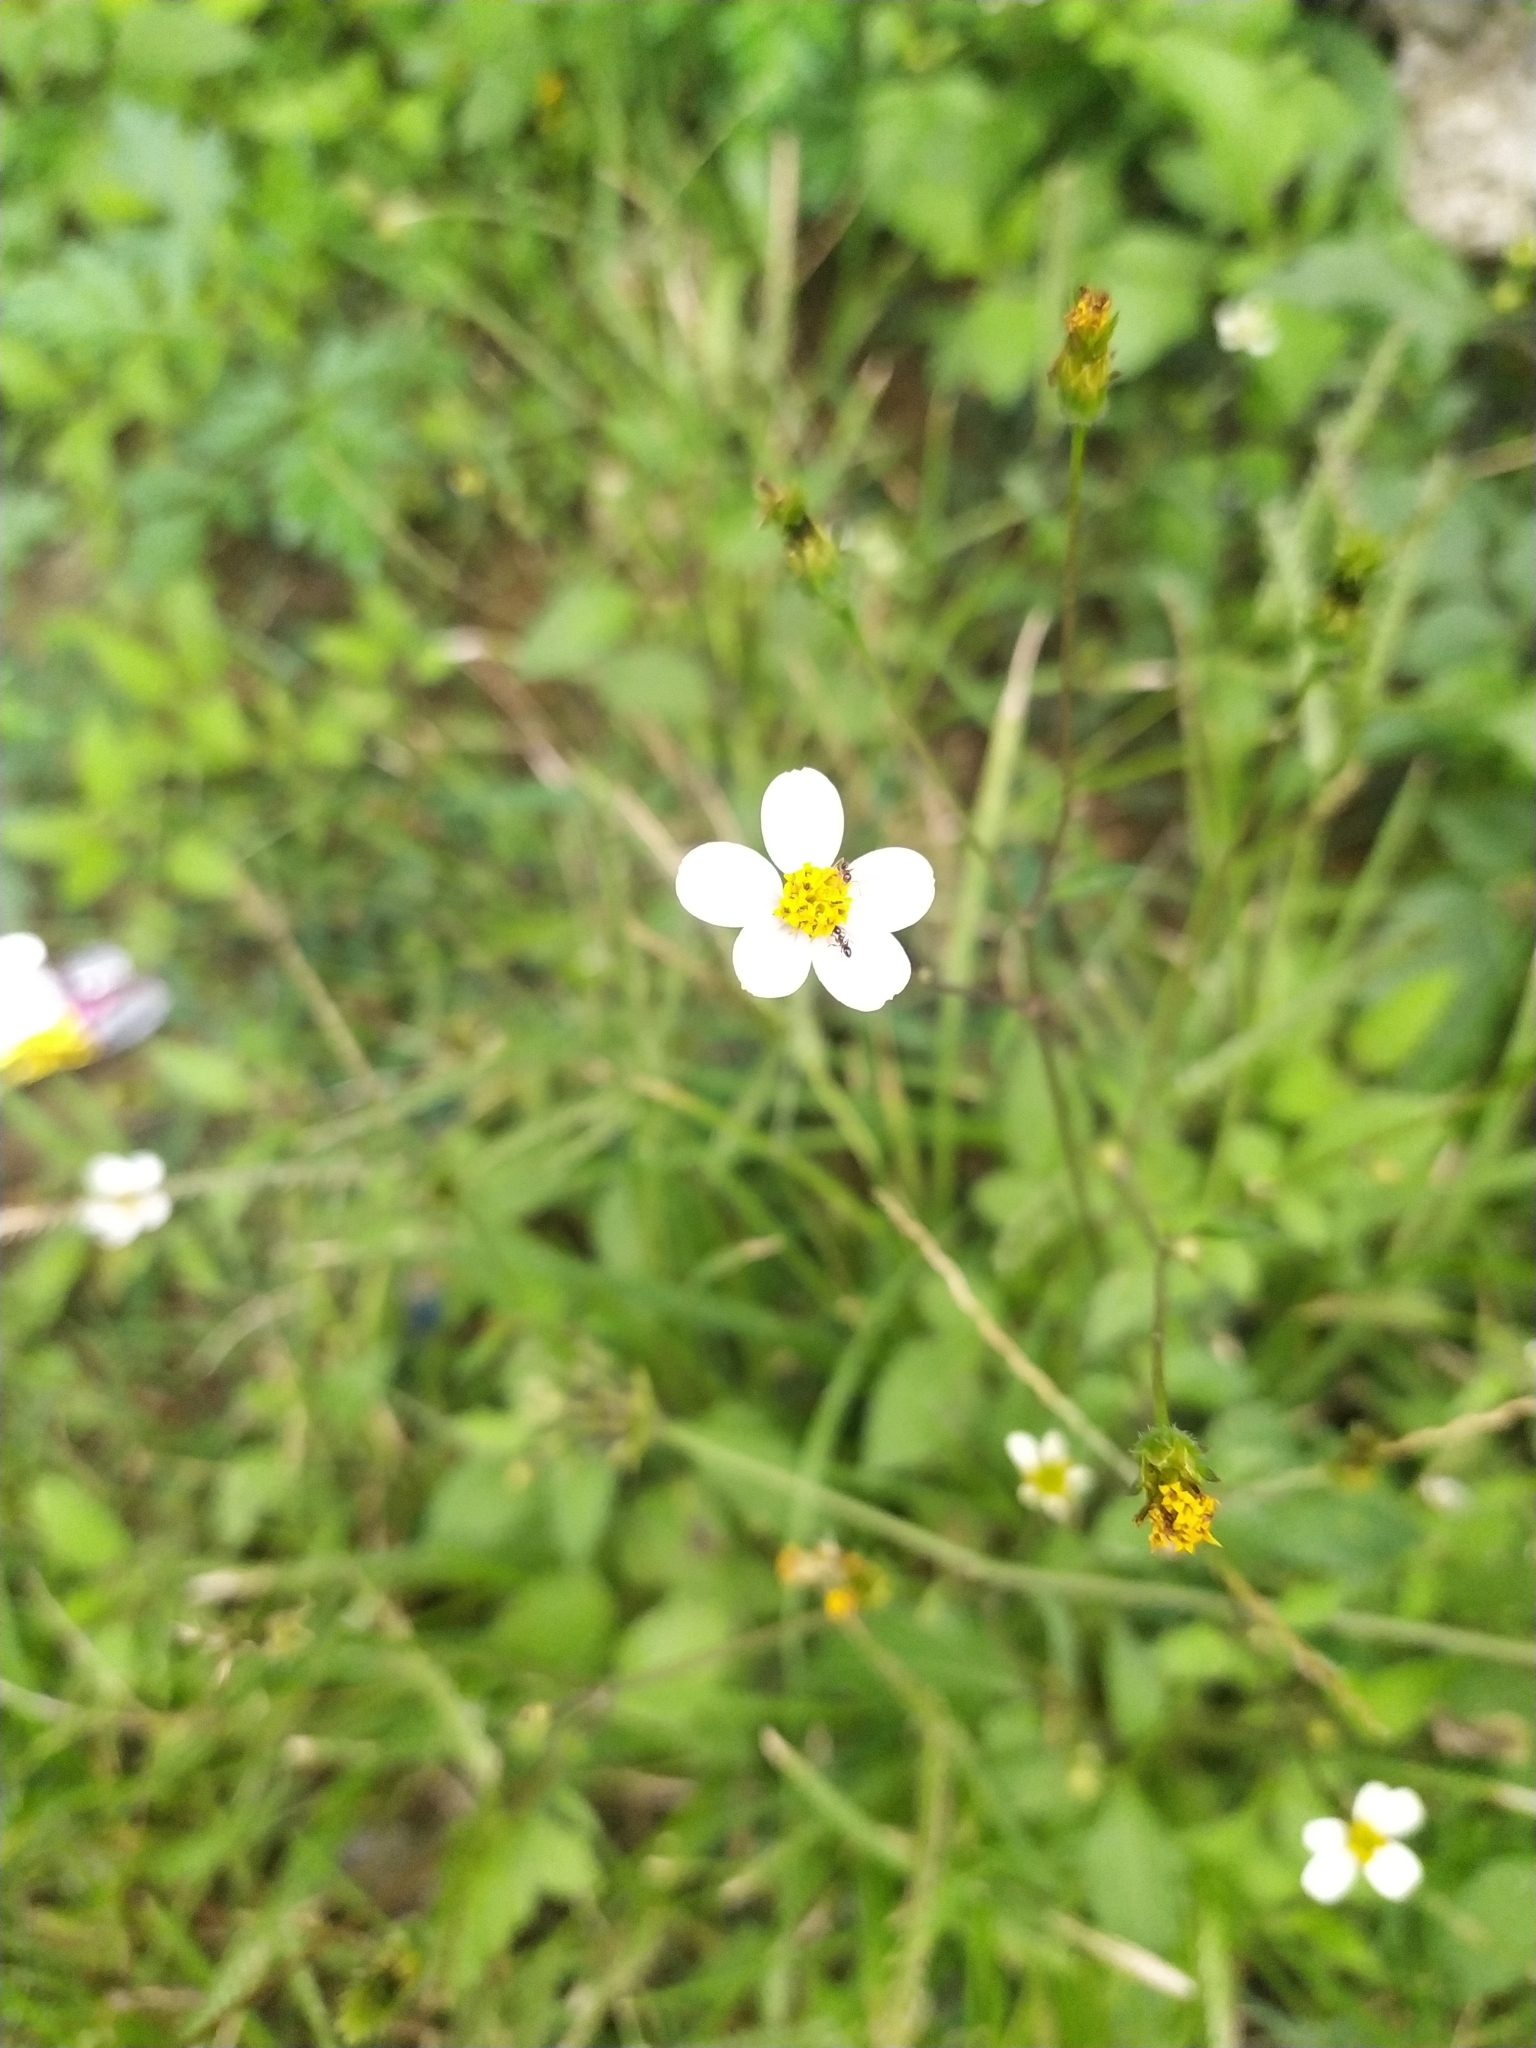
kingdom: Plantae
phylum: Tracheophyta
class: Magnoliopsida
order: Asterales
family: Asteraceae
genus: Bidens
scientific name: Bidens pilosa
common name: Black-jack
